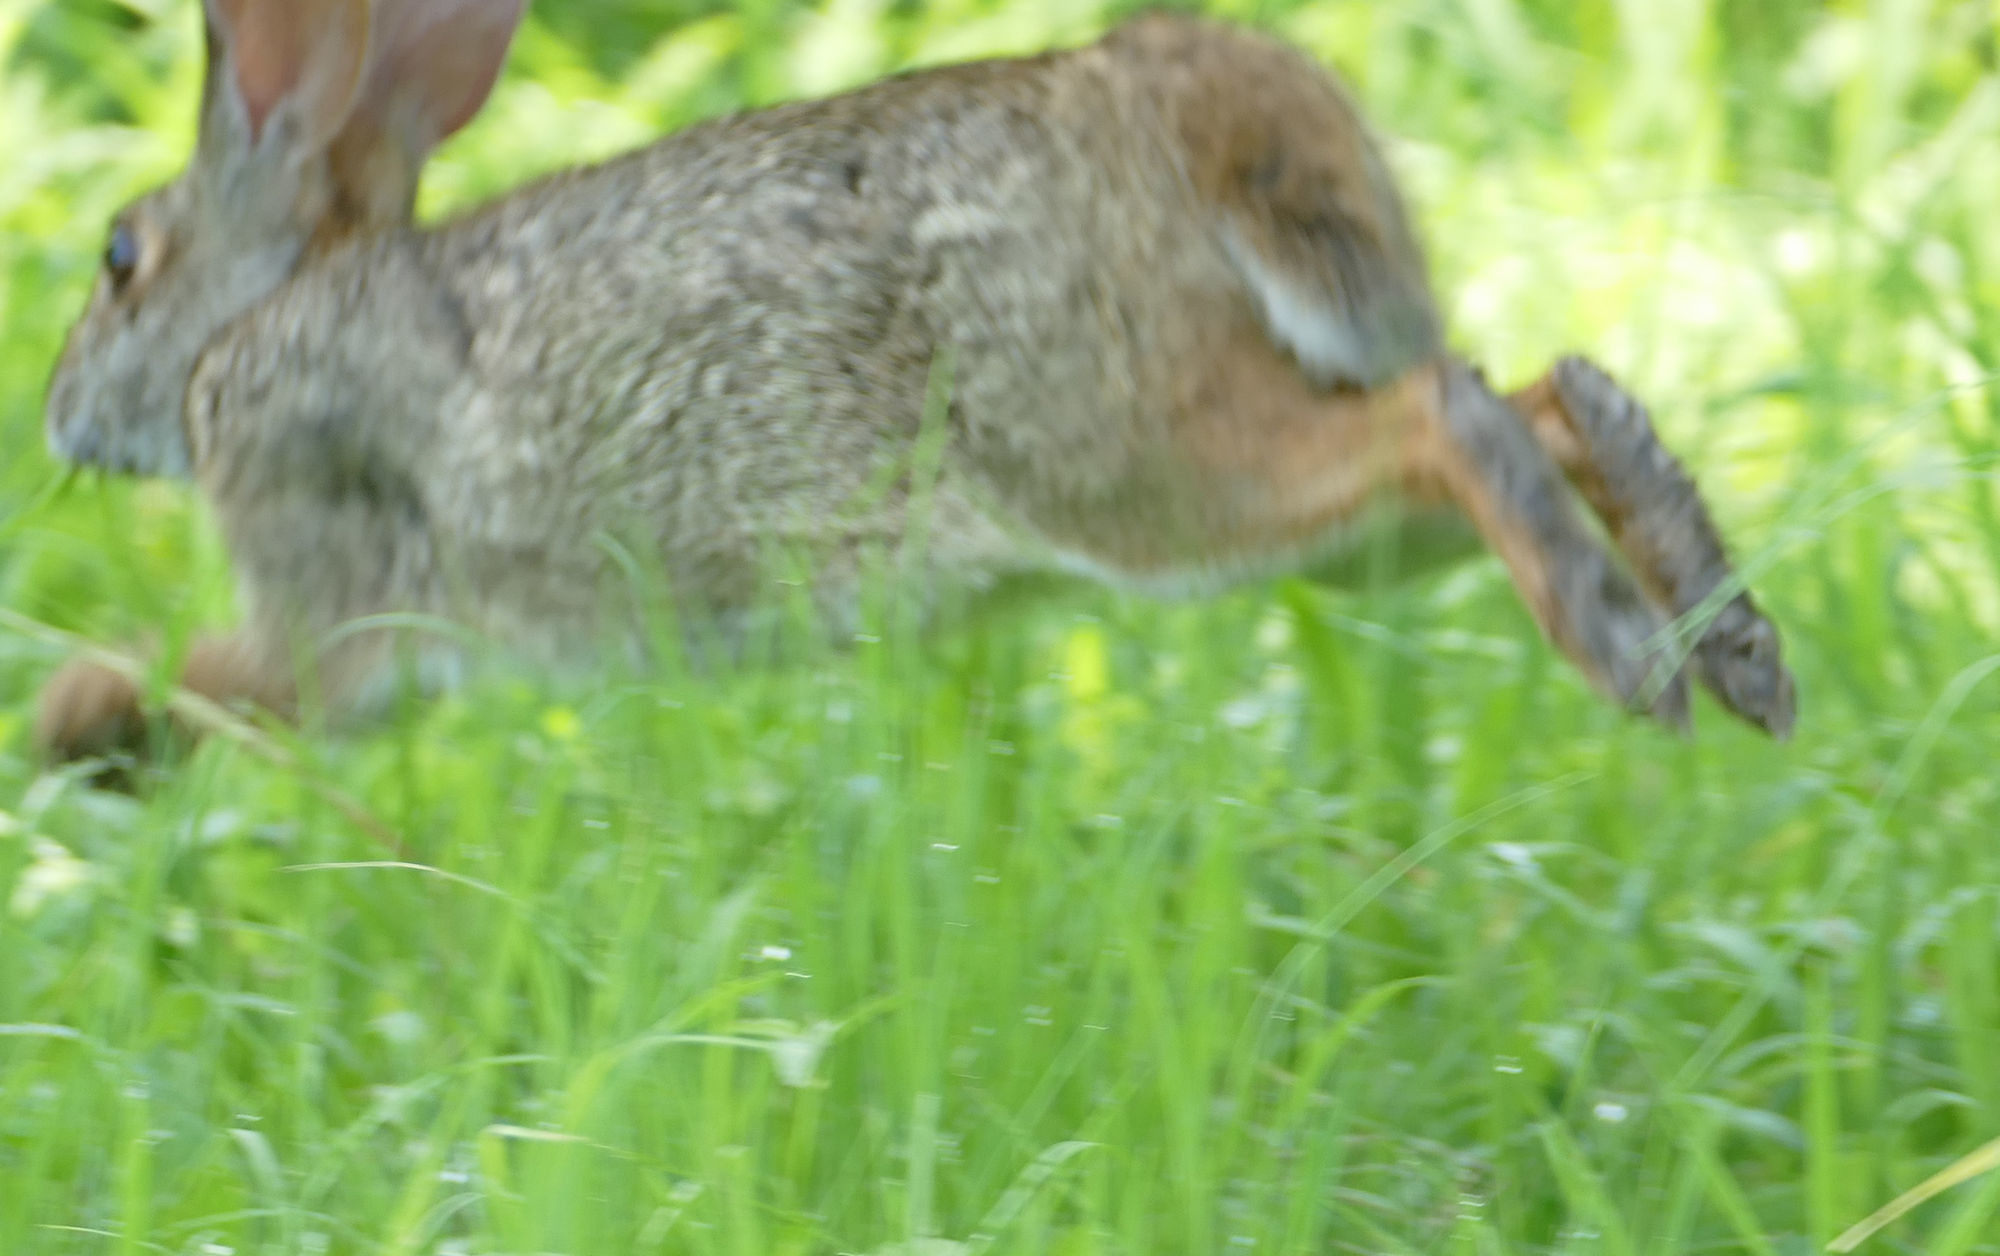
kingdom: Animalia
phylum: Chordata
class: Mammalia
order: Lagomorpha
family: Leporidae
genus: Sylvilagus
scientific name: Sylvilagus aquaticus
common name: Swamp rabbit
